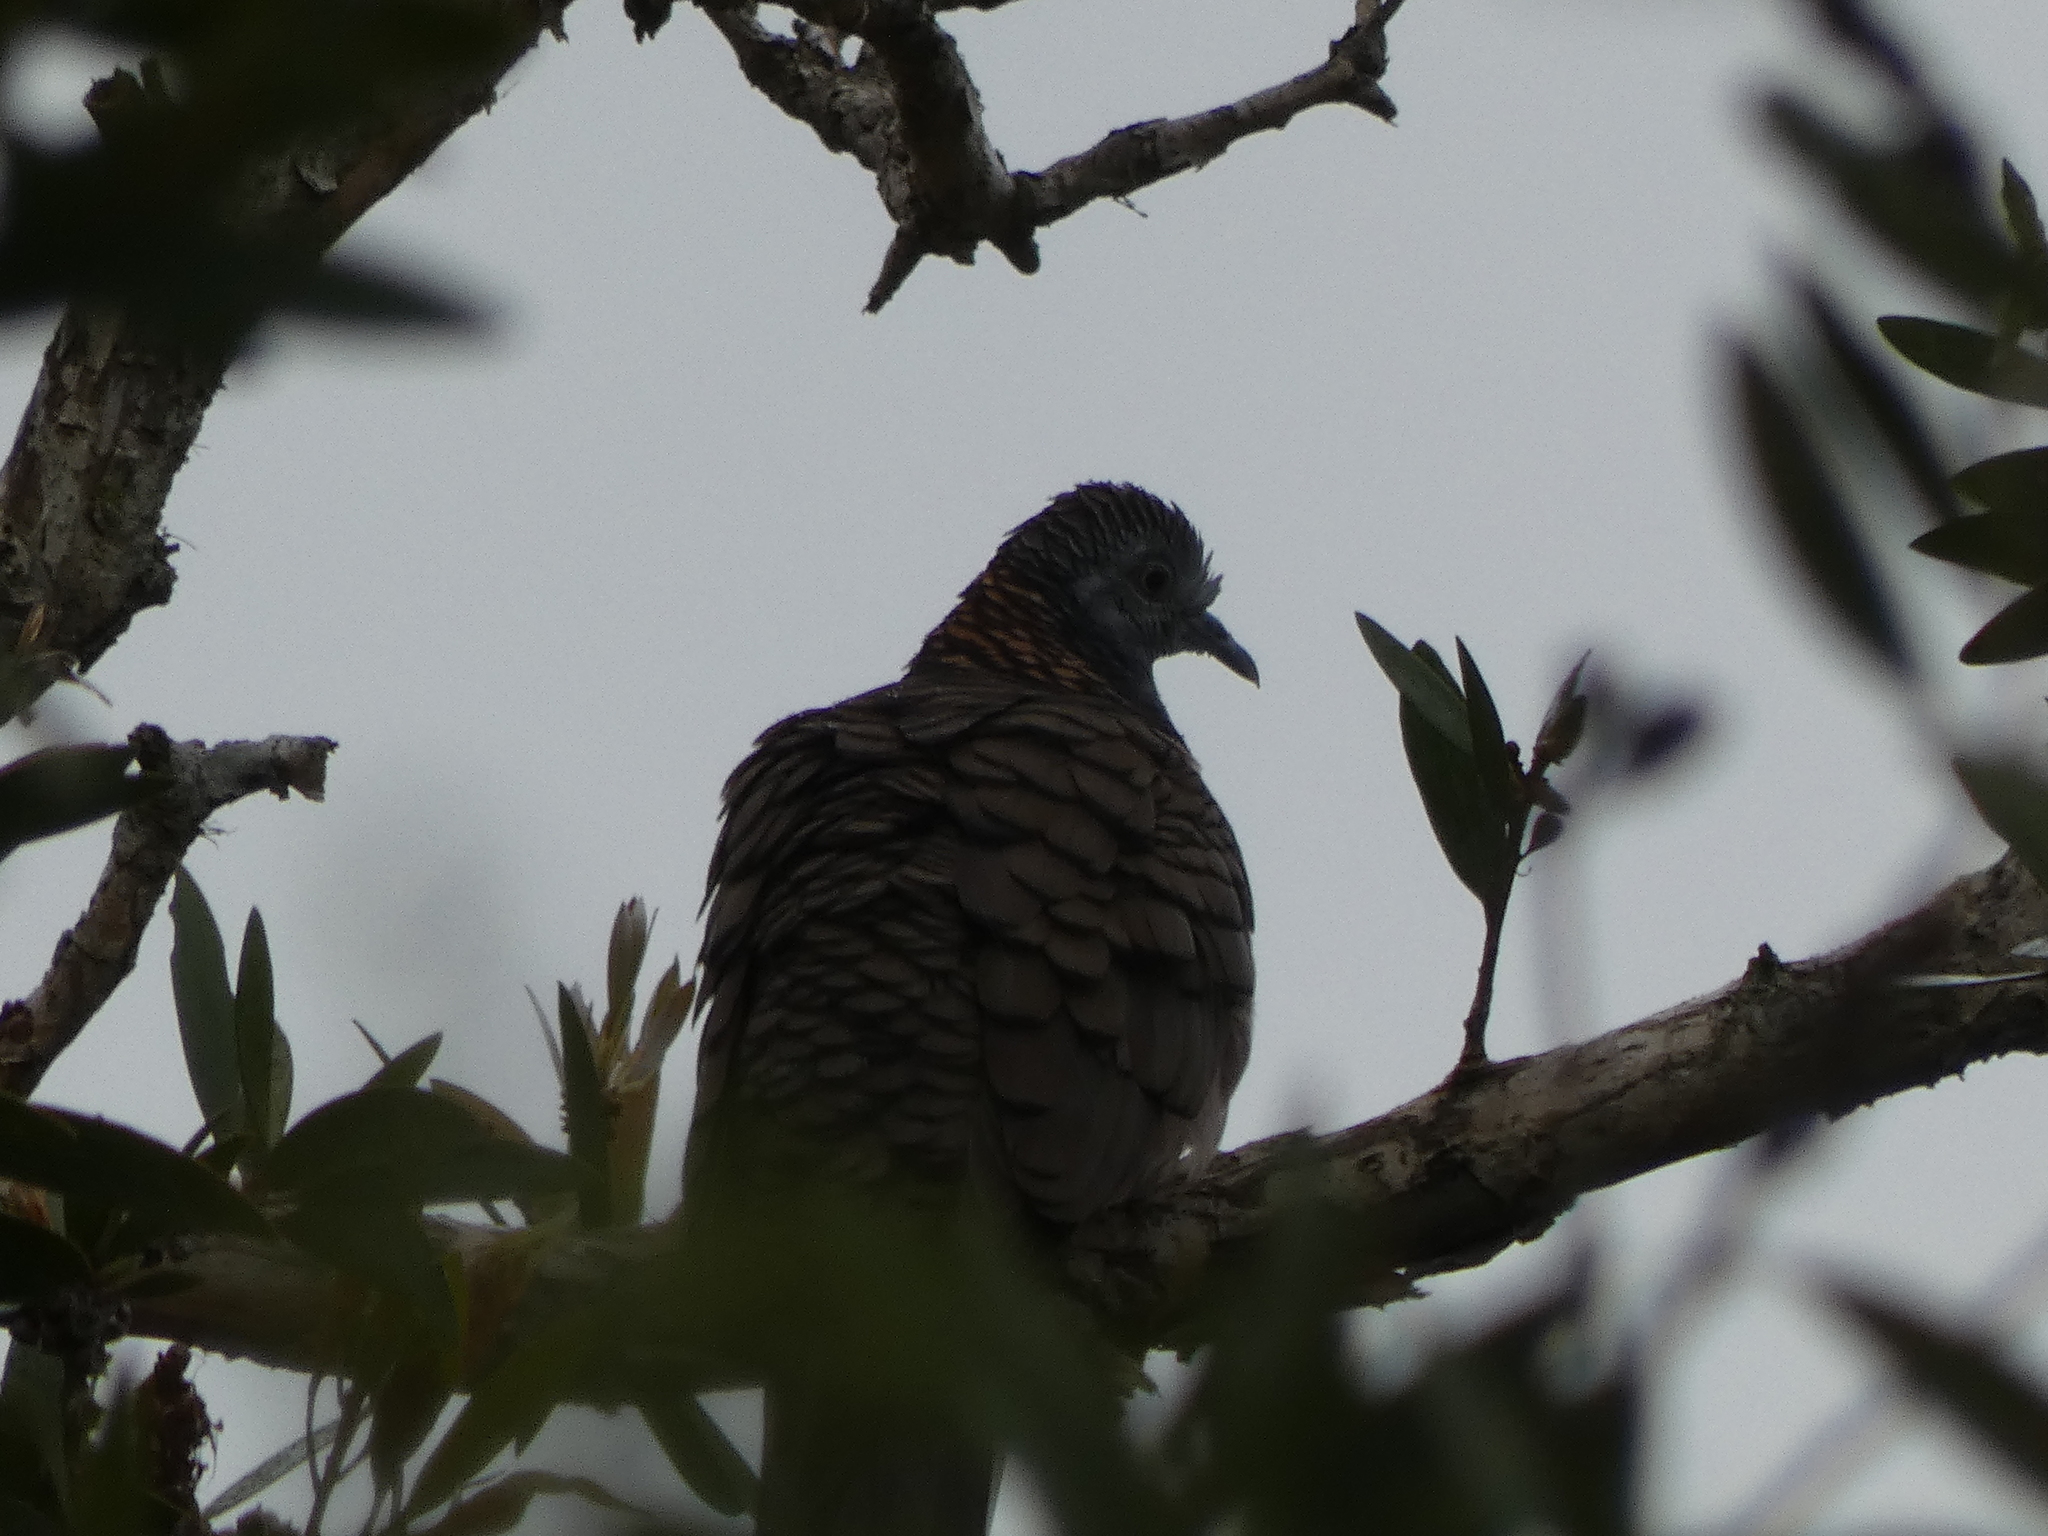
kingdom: Animalia
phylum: Chordata
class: Aves
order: Columbiformes
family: Columbidae
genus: Geopelia
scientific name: Geopelia humeralis
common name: Bar-shouldered dove
